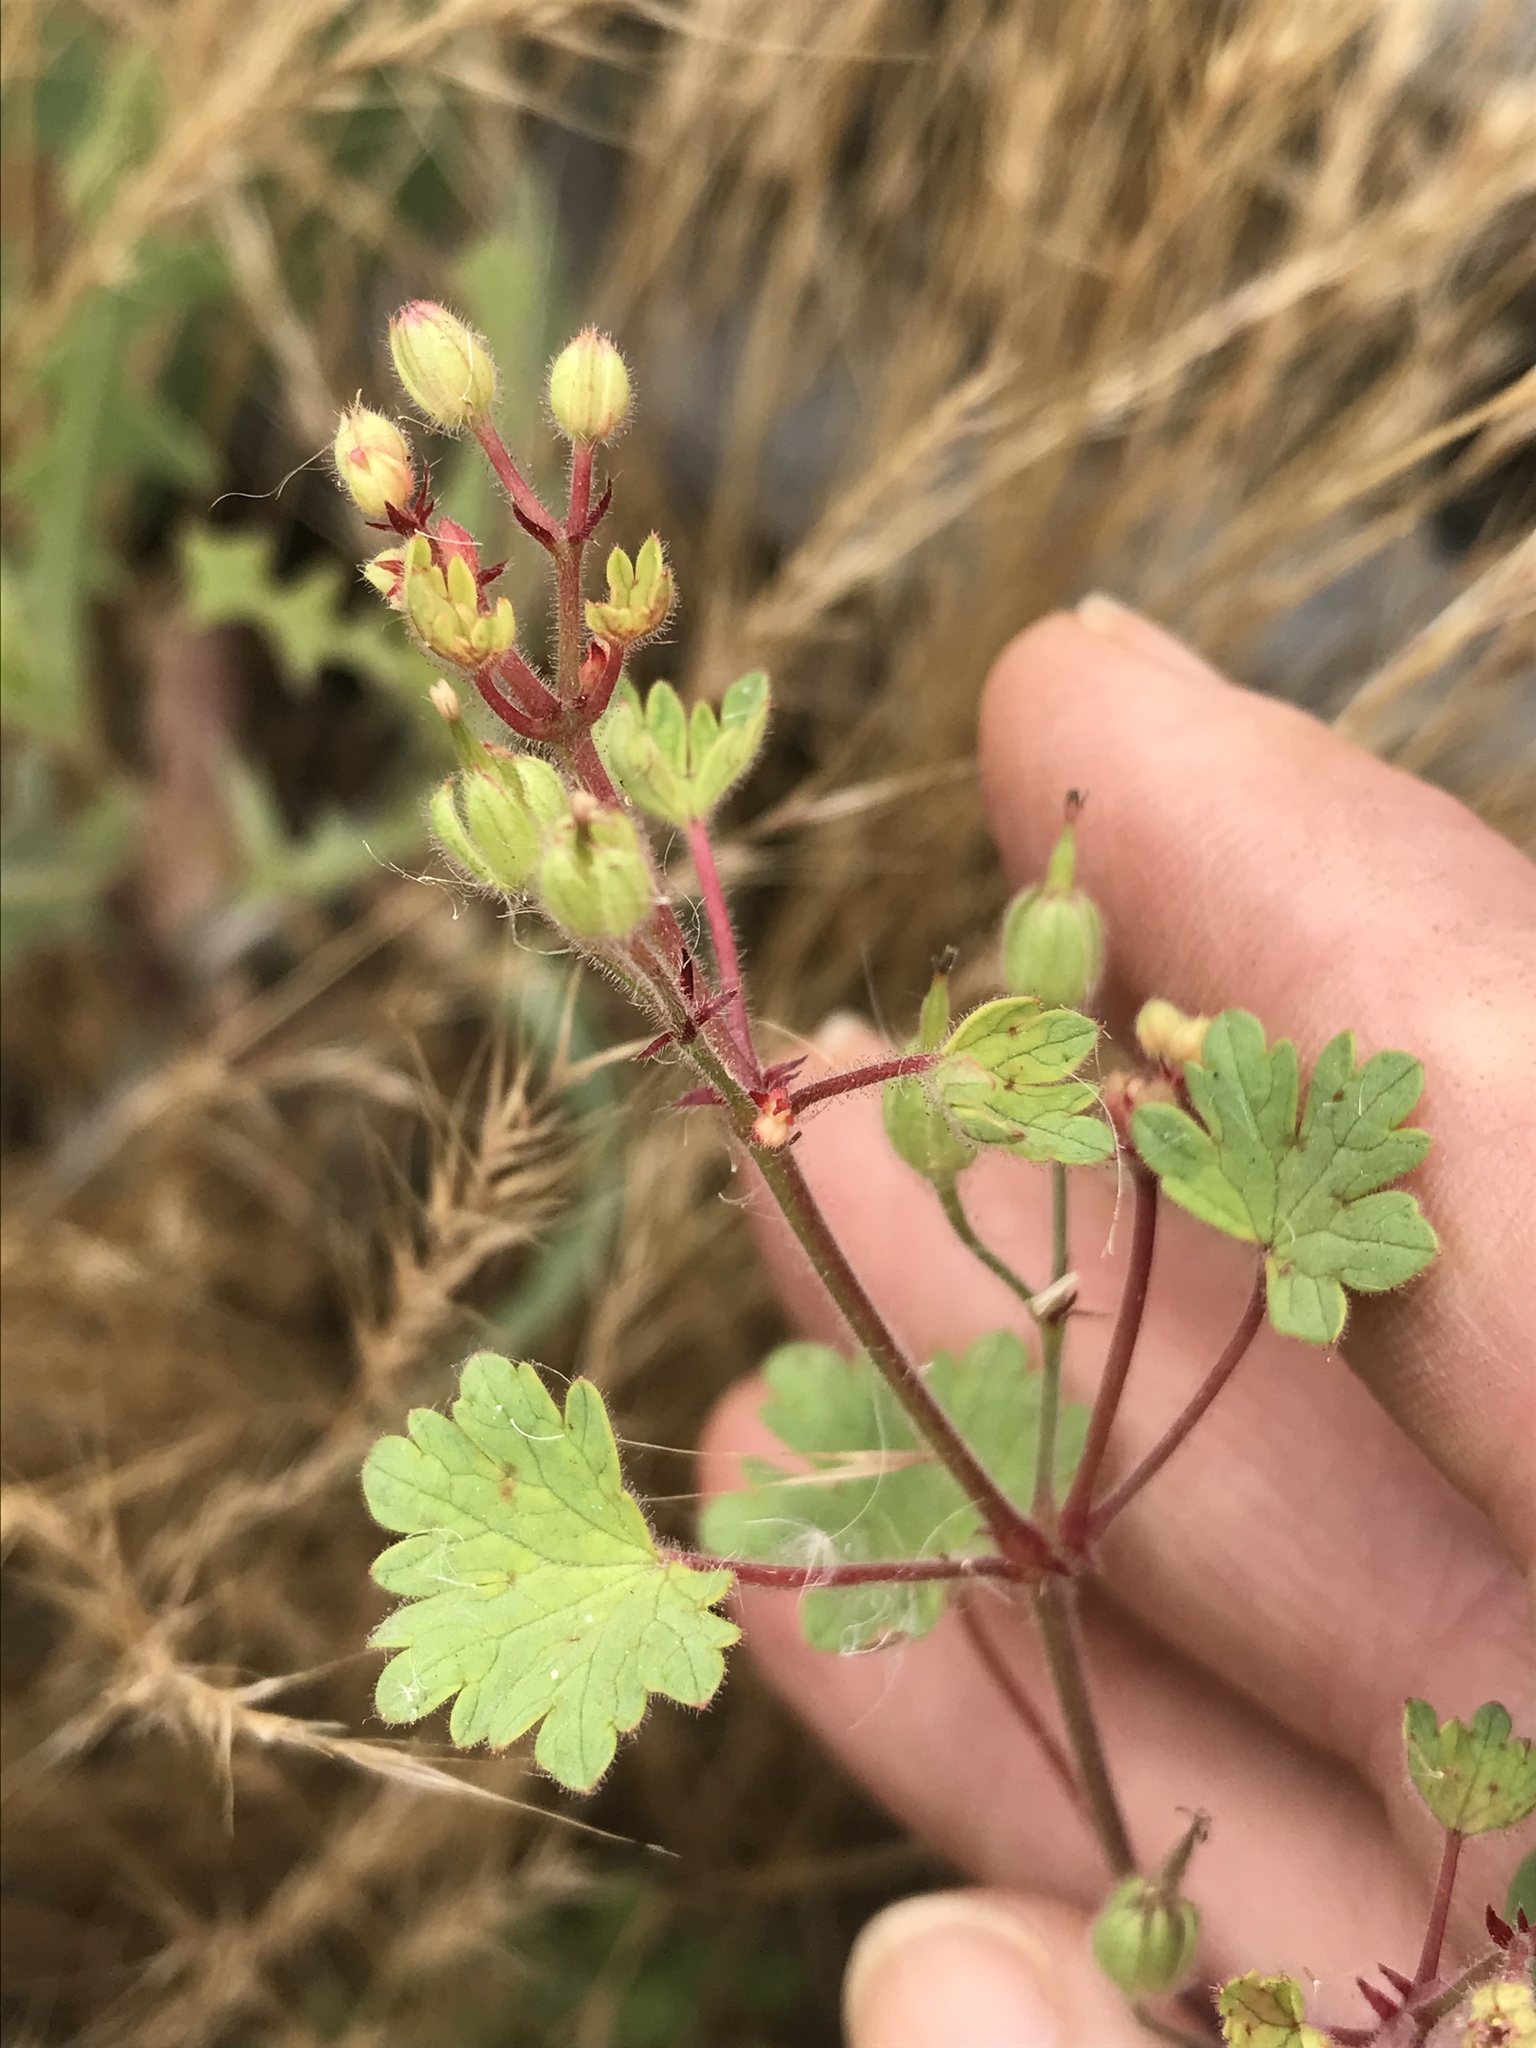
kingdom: Plantae
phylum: Tracheophyta
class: Magnoliopsida
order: Geraniales
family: Geraniaceae
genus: Geranium
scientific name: Geranium rotundifolium
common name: Round-leaved crane's-bill
